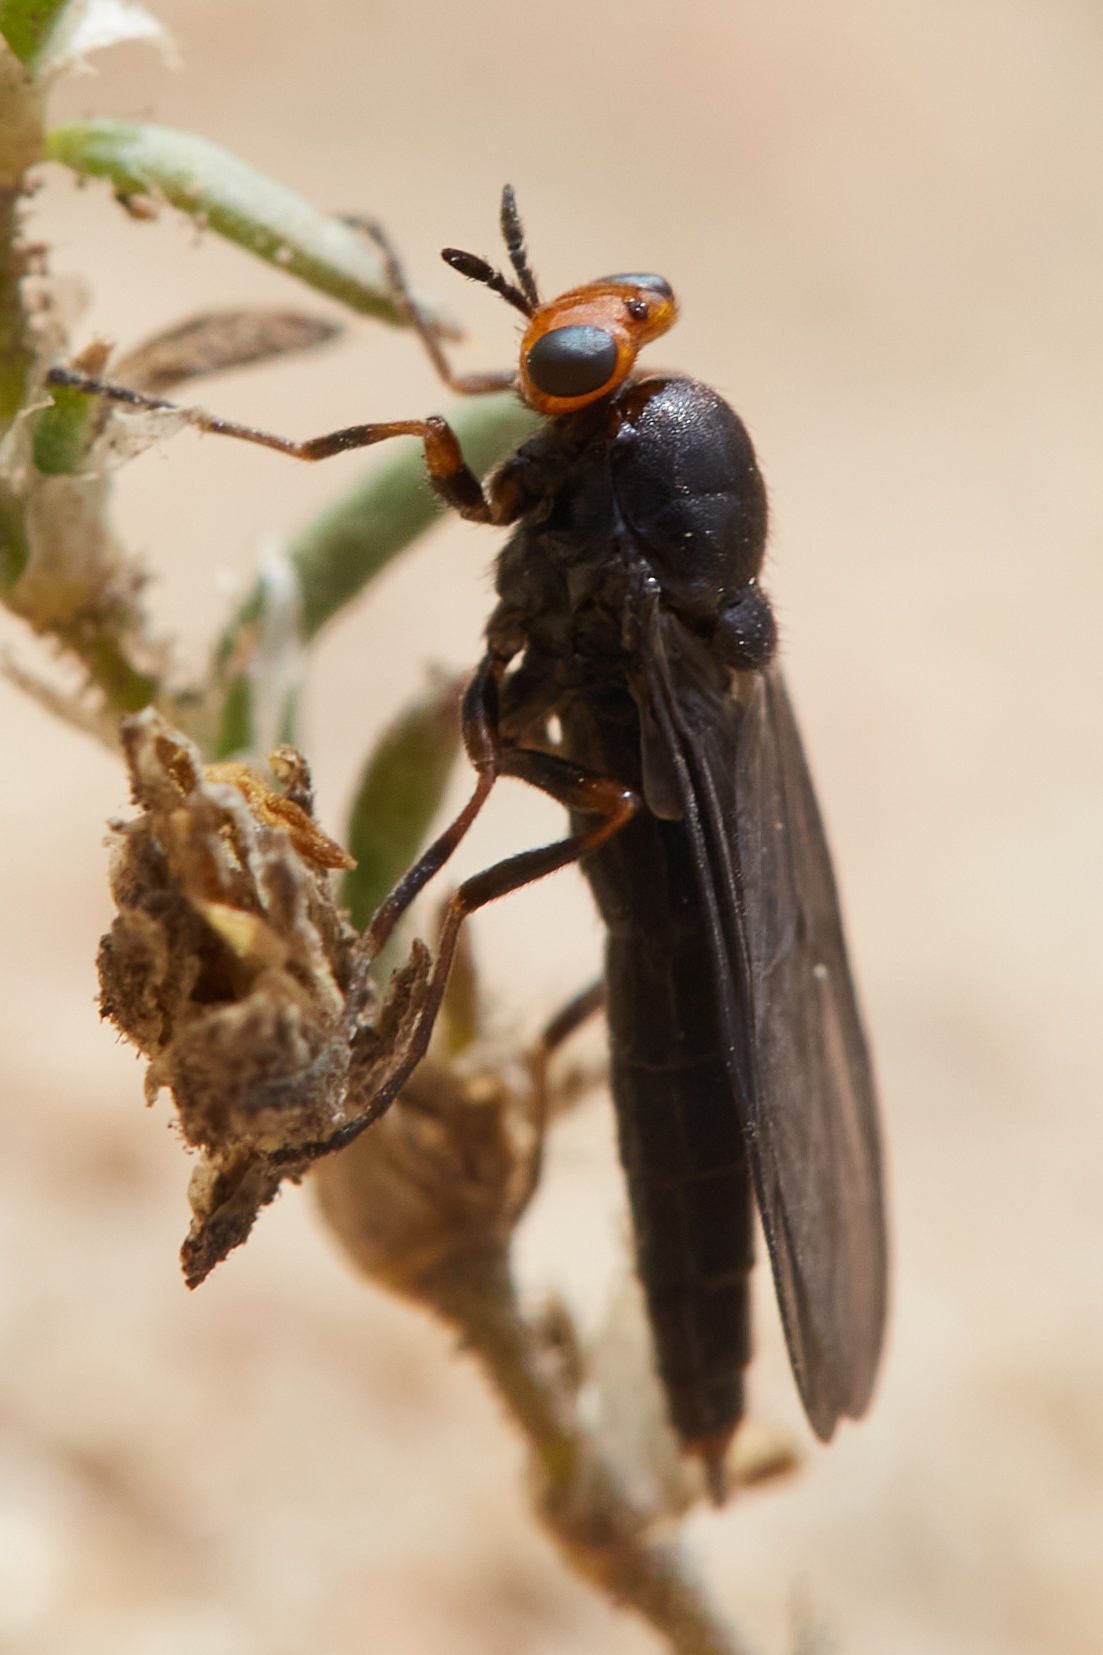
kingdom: Animalia
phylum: Arthropoda
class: Insecta
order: Diptera
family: Stratiomyidae
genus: Inopus
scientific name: Inopus rubriceps
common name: Soldier fly
